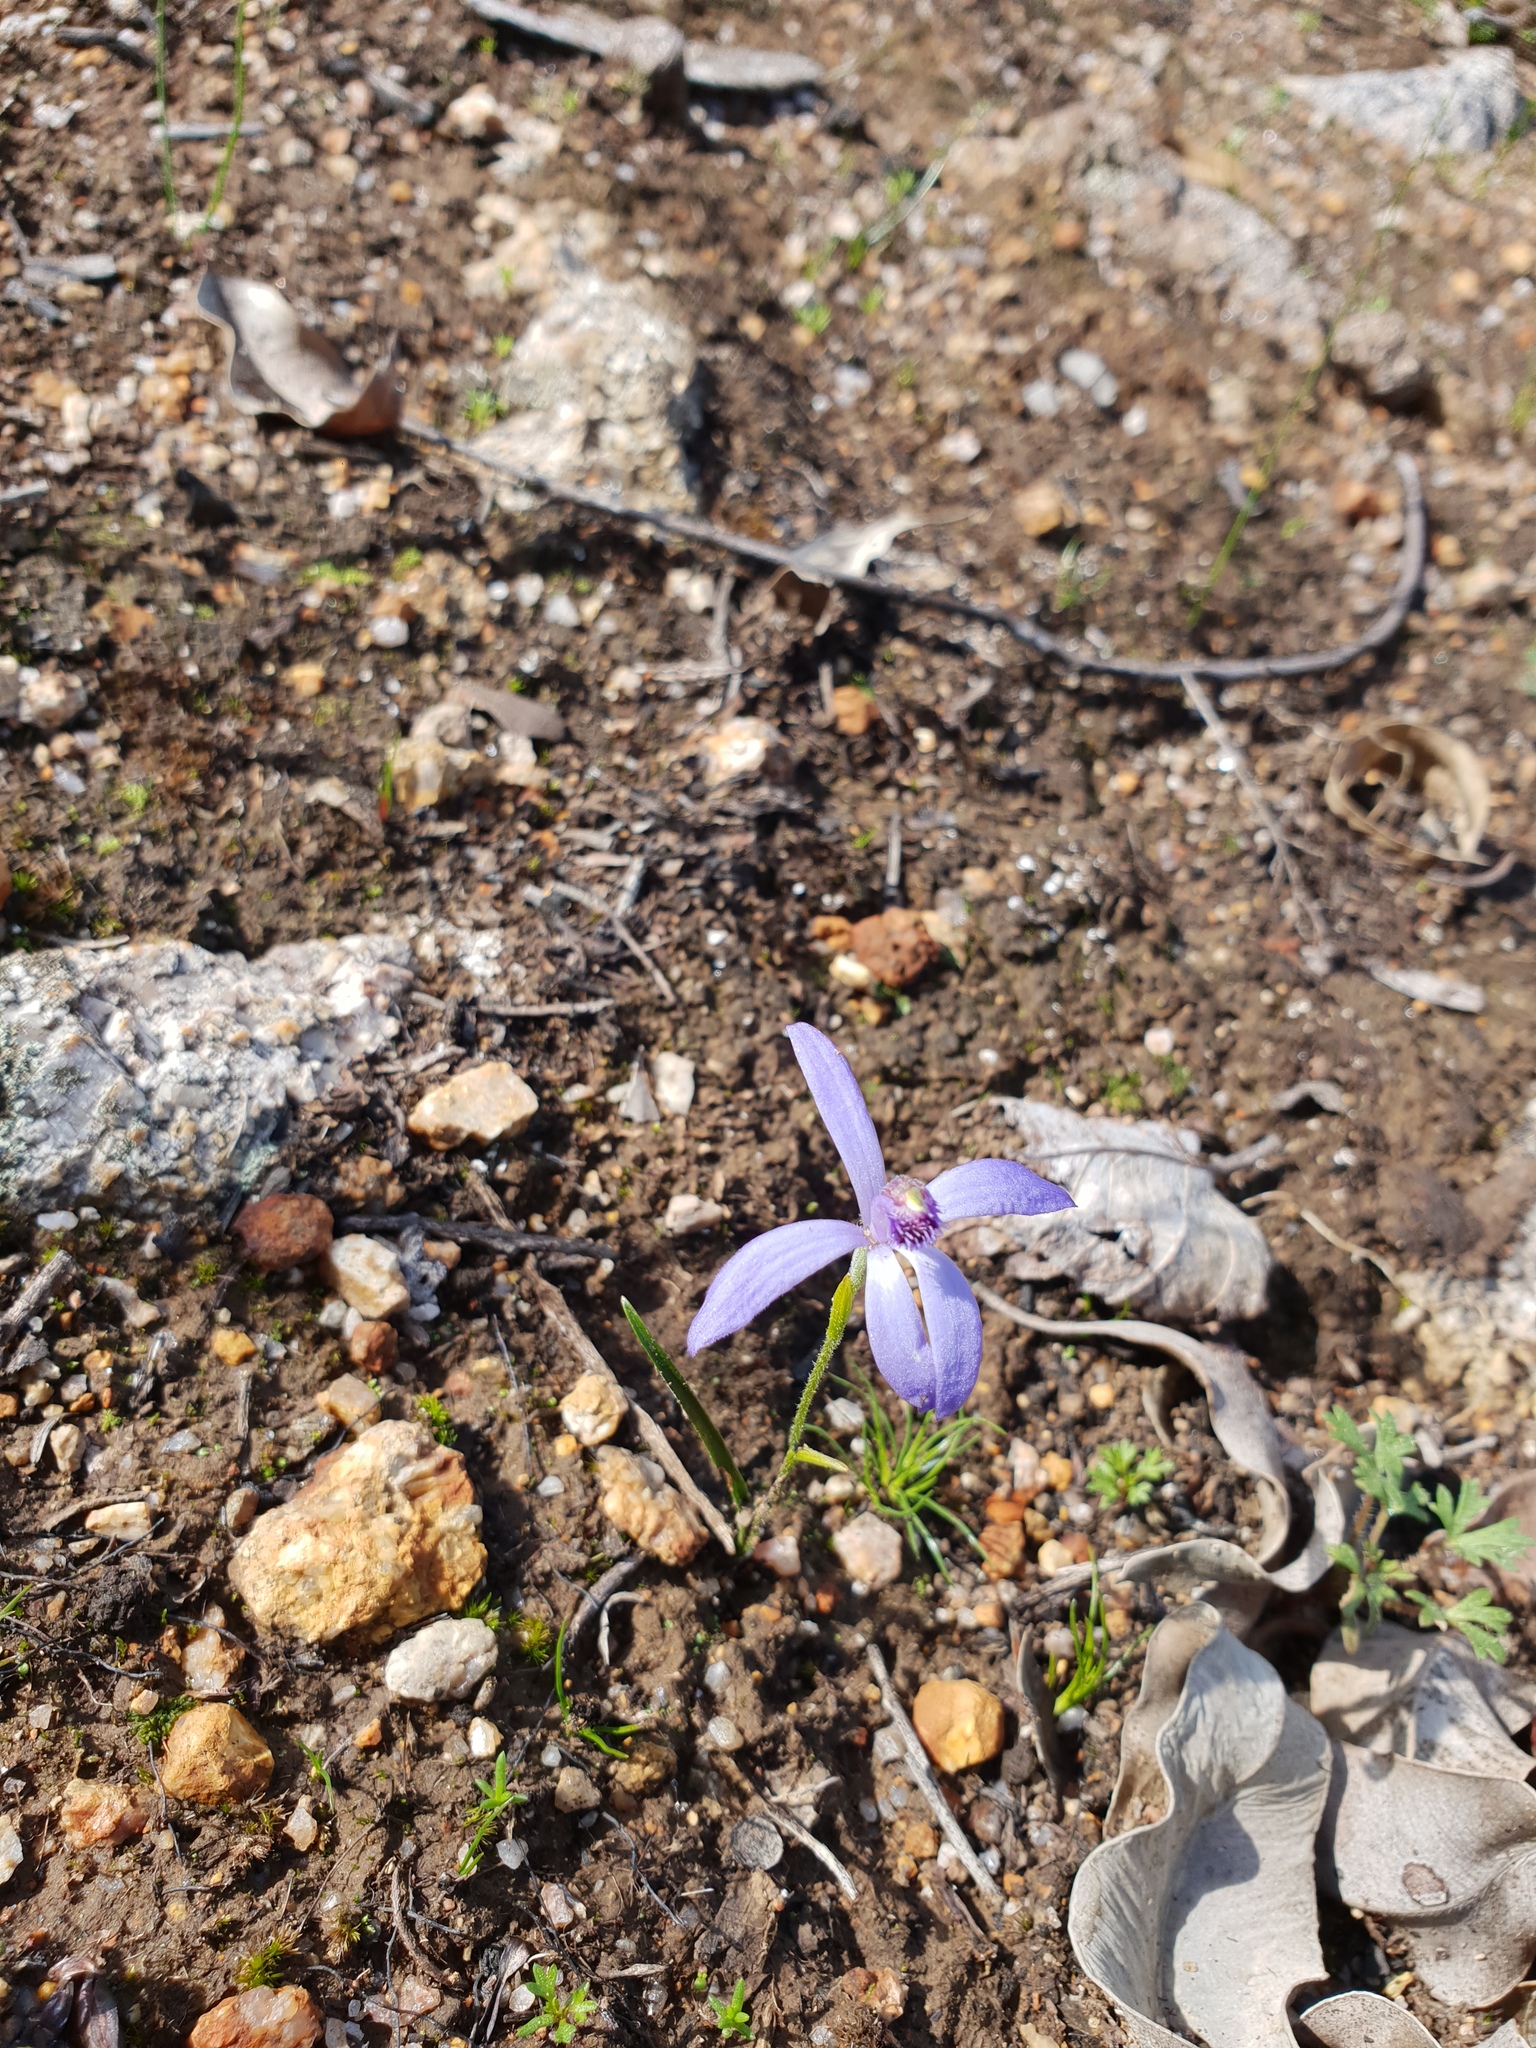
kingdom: Plantae
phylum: Tracheophyta
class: Liliopsida
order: Asparagales
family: Orchidaceae
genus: Pheladenia
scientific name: Pheladenia deformis
